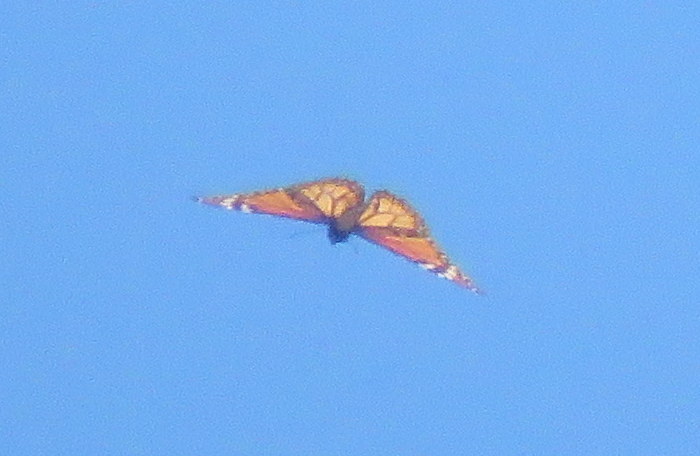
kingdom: Animalia
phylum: Arthropoda
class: Insecta
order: Lepidoptera
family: Nymphalidae
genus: Danaus
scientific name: Danaus erippus
